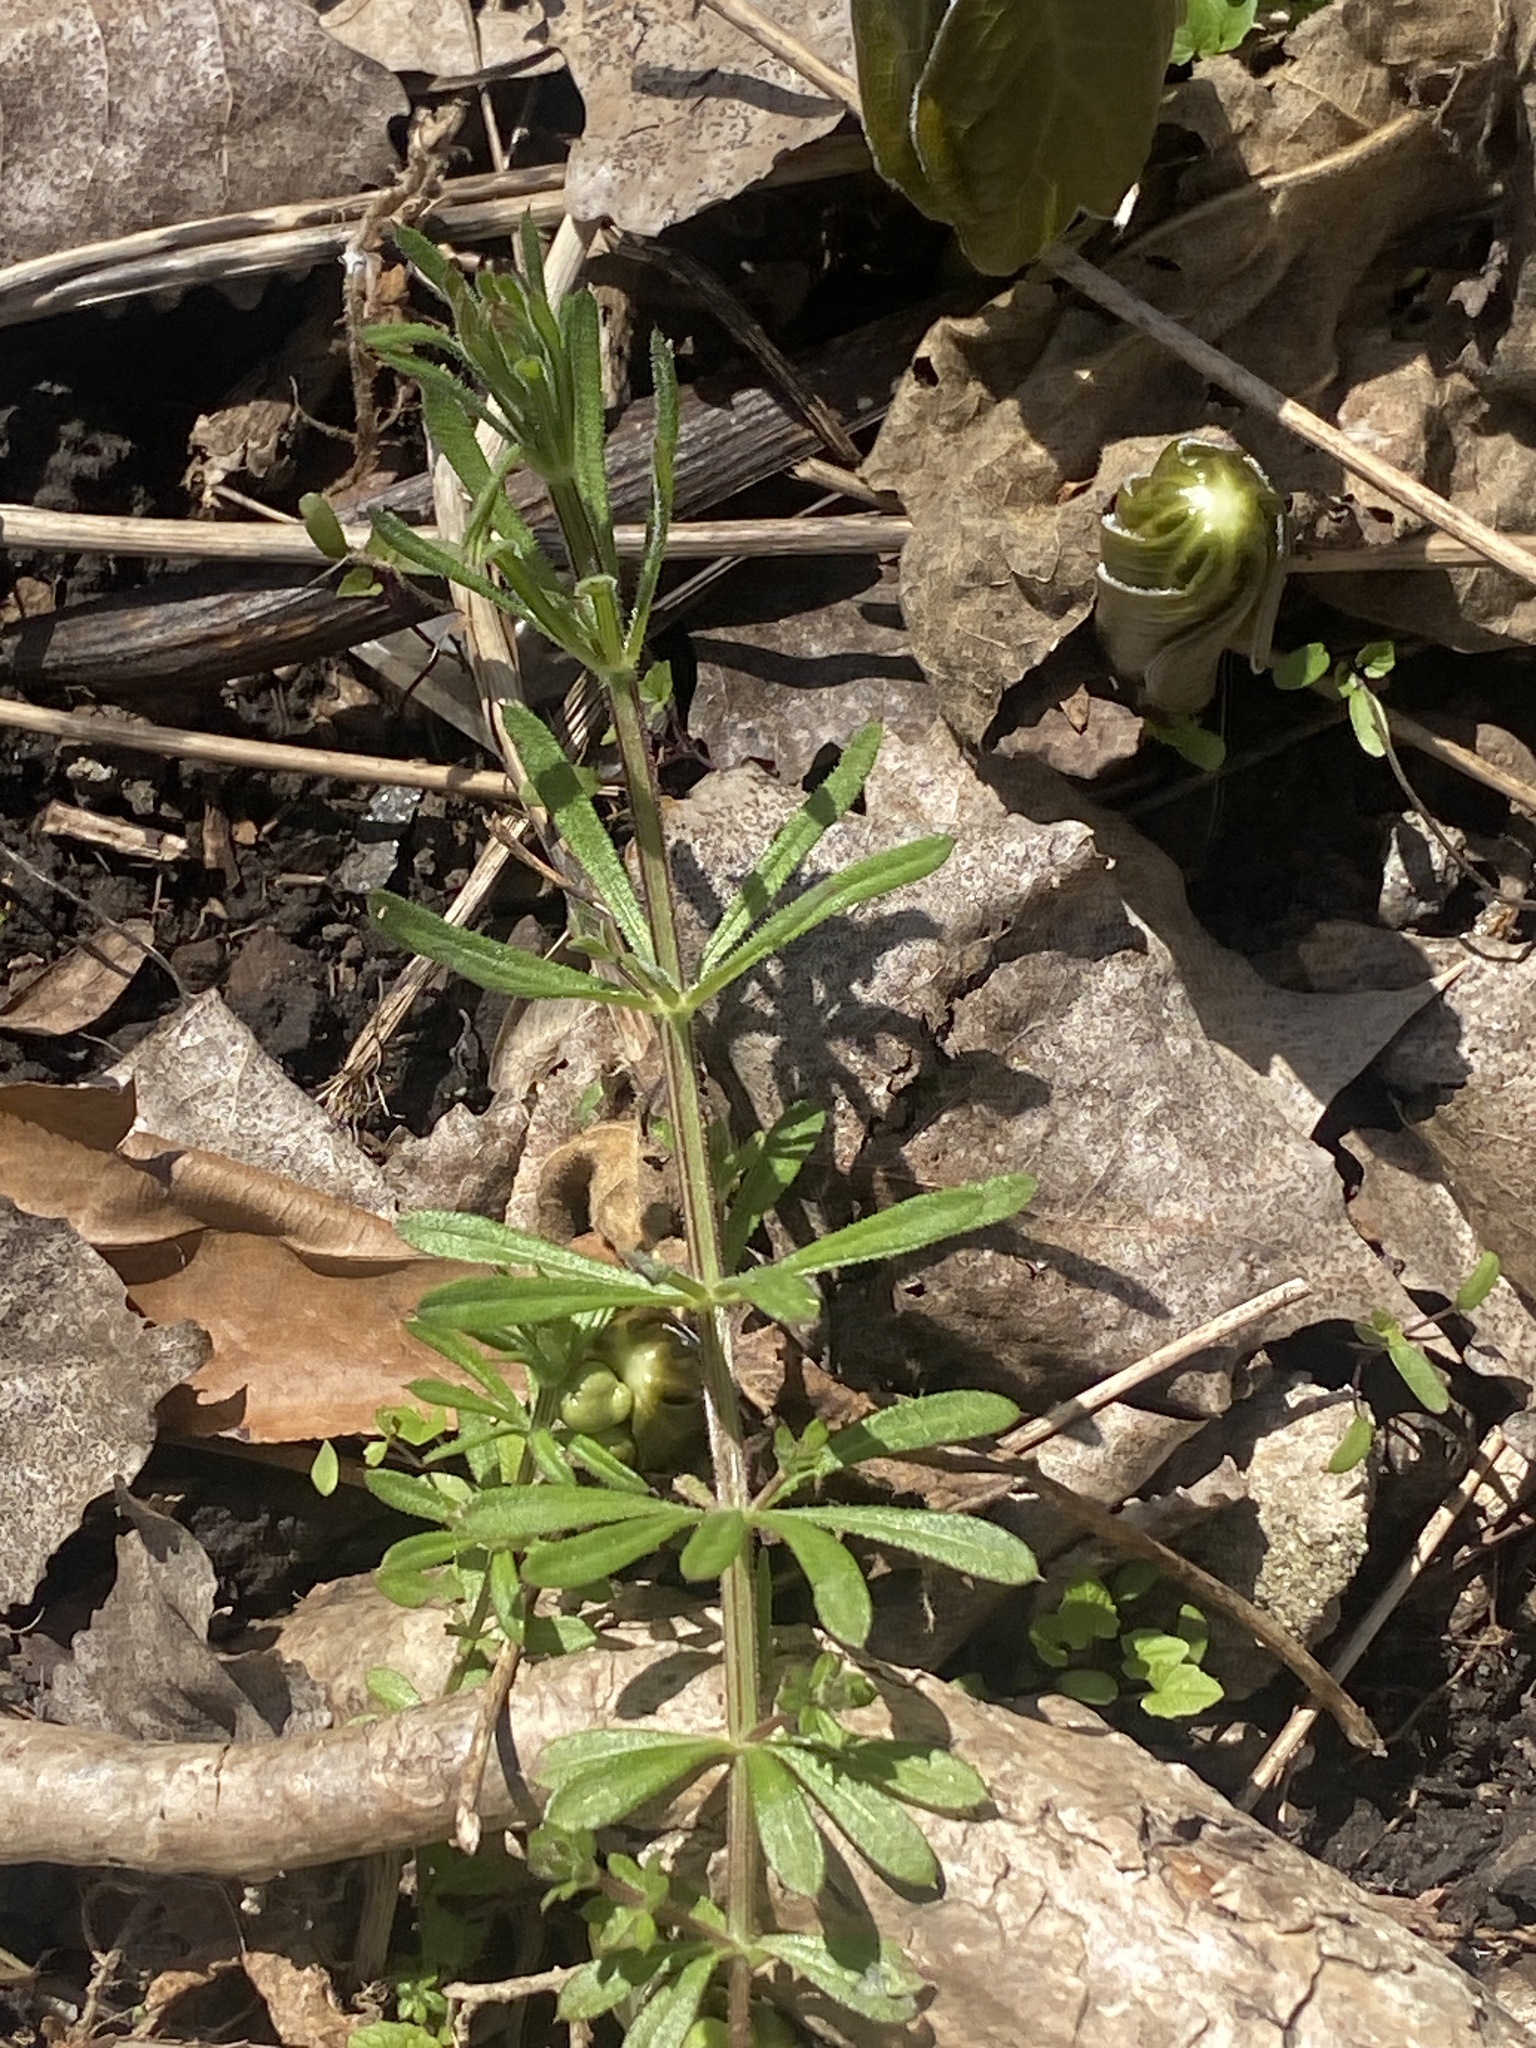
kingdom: Plantae
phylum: Tracheophyta
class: Magnoliopsida
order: Gentianales
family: Rubiaceae
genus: Galium
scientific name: Galium aparine
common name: Cleavers
